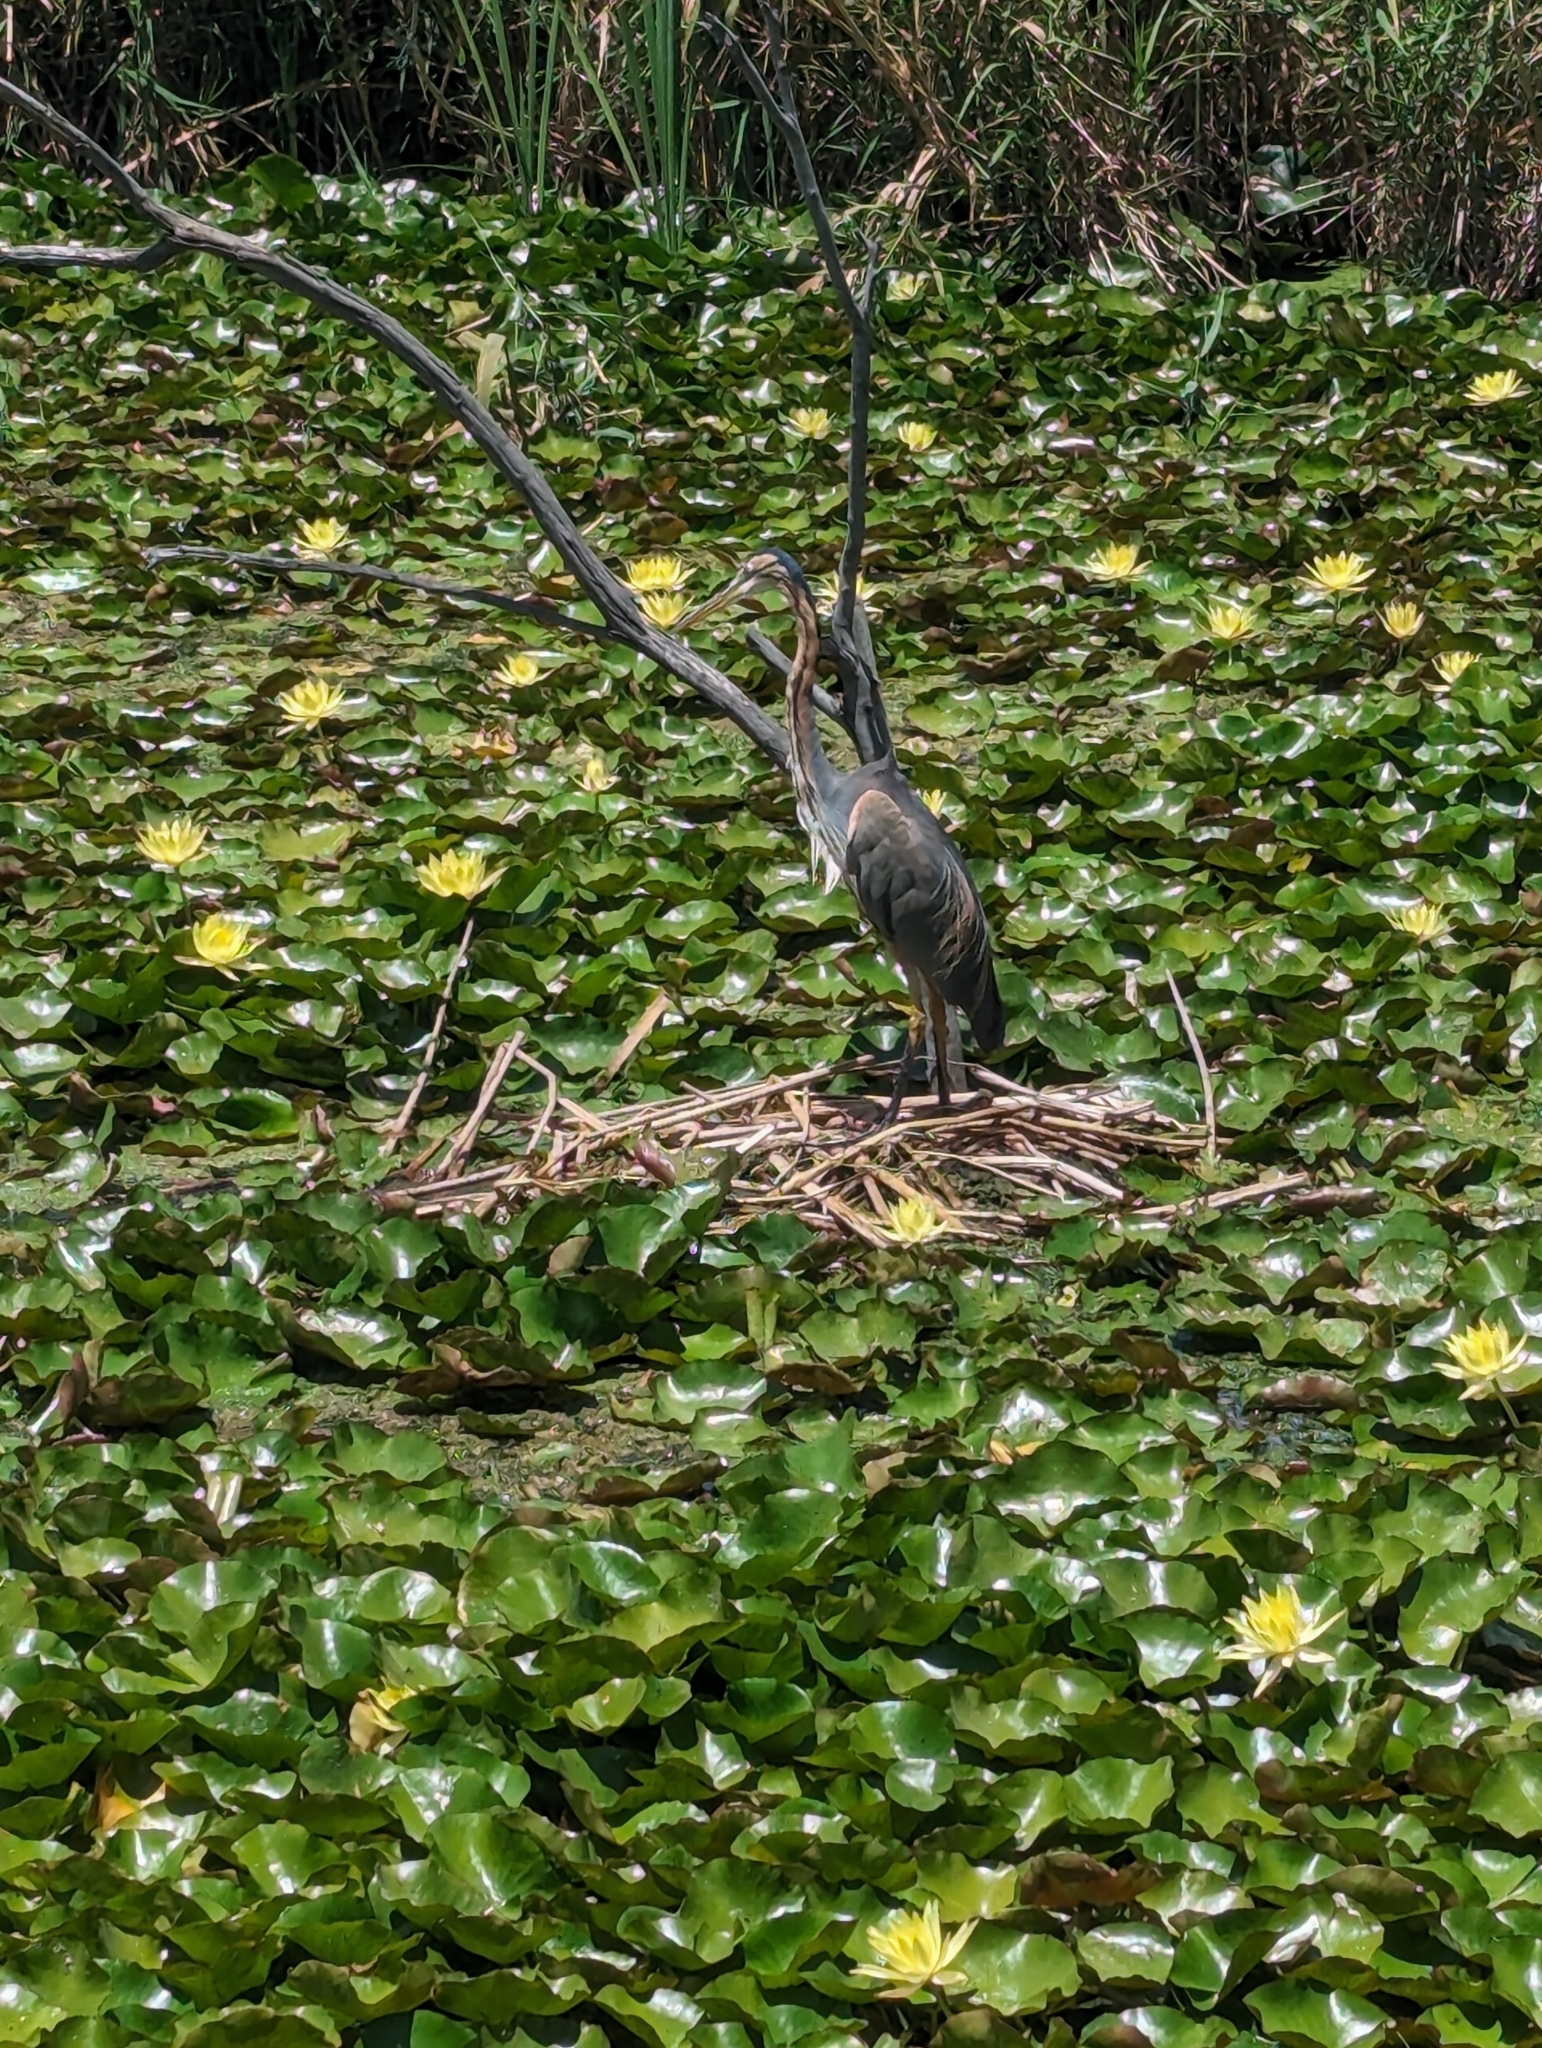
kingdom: Animalia
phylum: Chordata
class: Aves
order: Pelecaniformes
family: Ardeidae
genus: Ardea
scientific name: Ardea purpurea
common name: Purple heron
